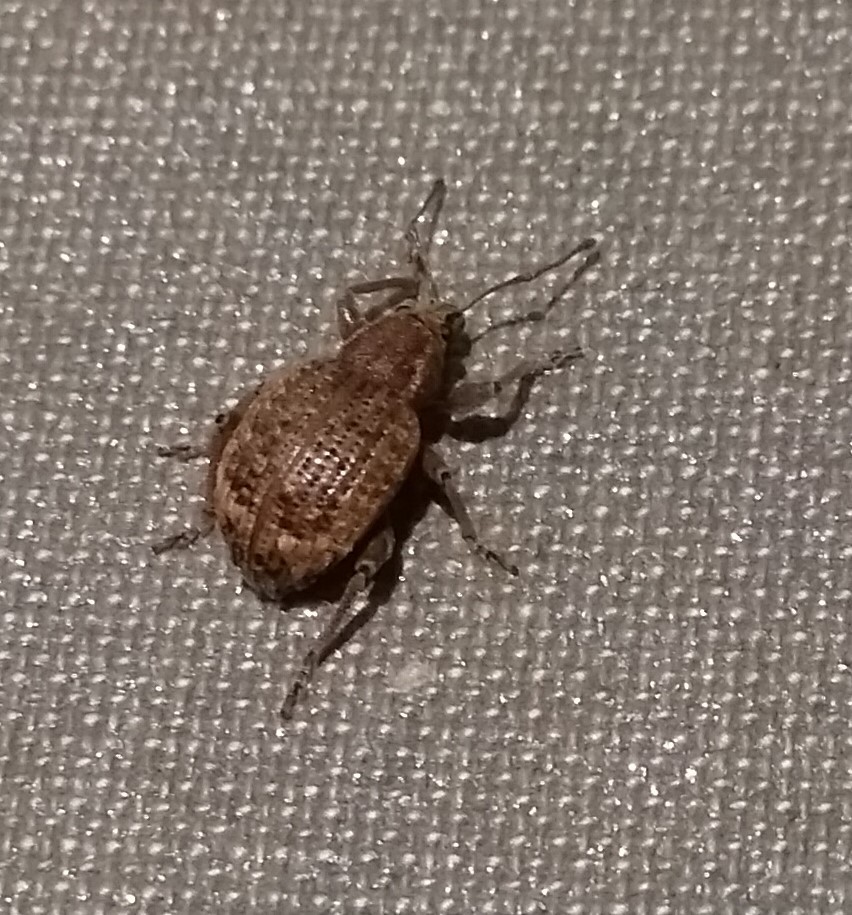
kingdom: Animalia
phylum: Arthropoda
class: Insecta
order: Coleoptera
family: Curculionidae
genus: Phlyctinus
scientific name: Phlyctinus callosus
